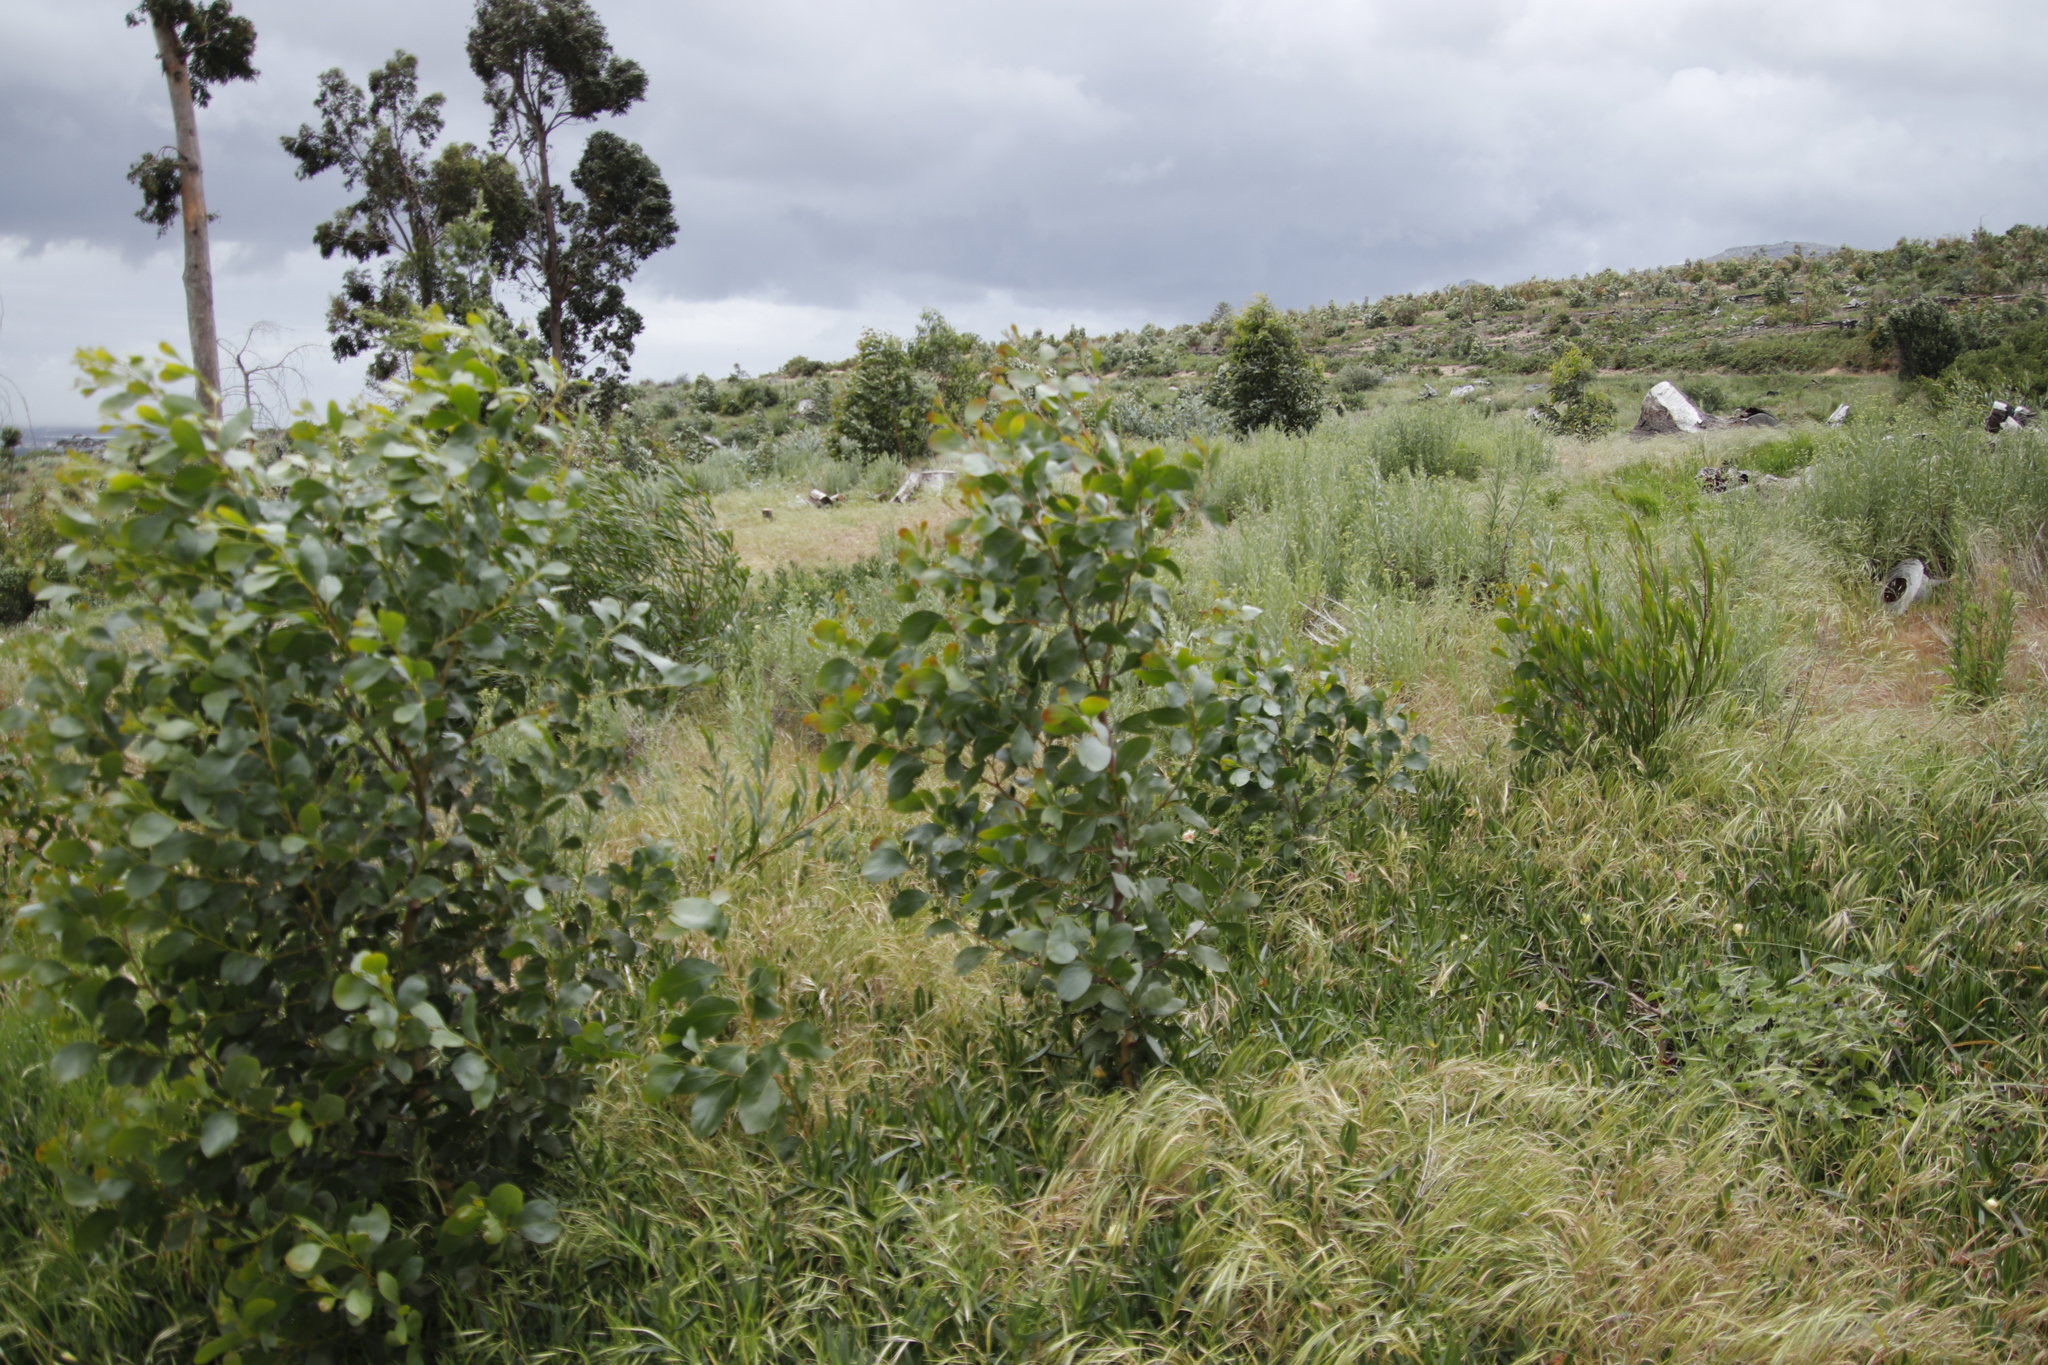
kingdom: Plantae
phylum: Tracheophyta
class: Magnoliopsida
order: Fabales
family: Fabaceae
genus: Acacia
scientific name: Acacia pycnantha
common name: Golden wattle
